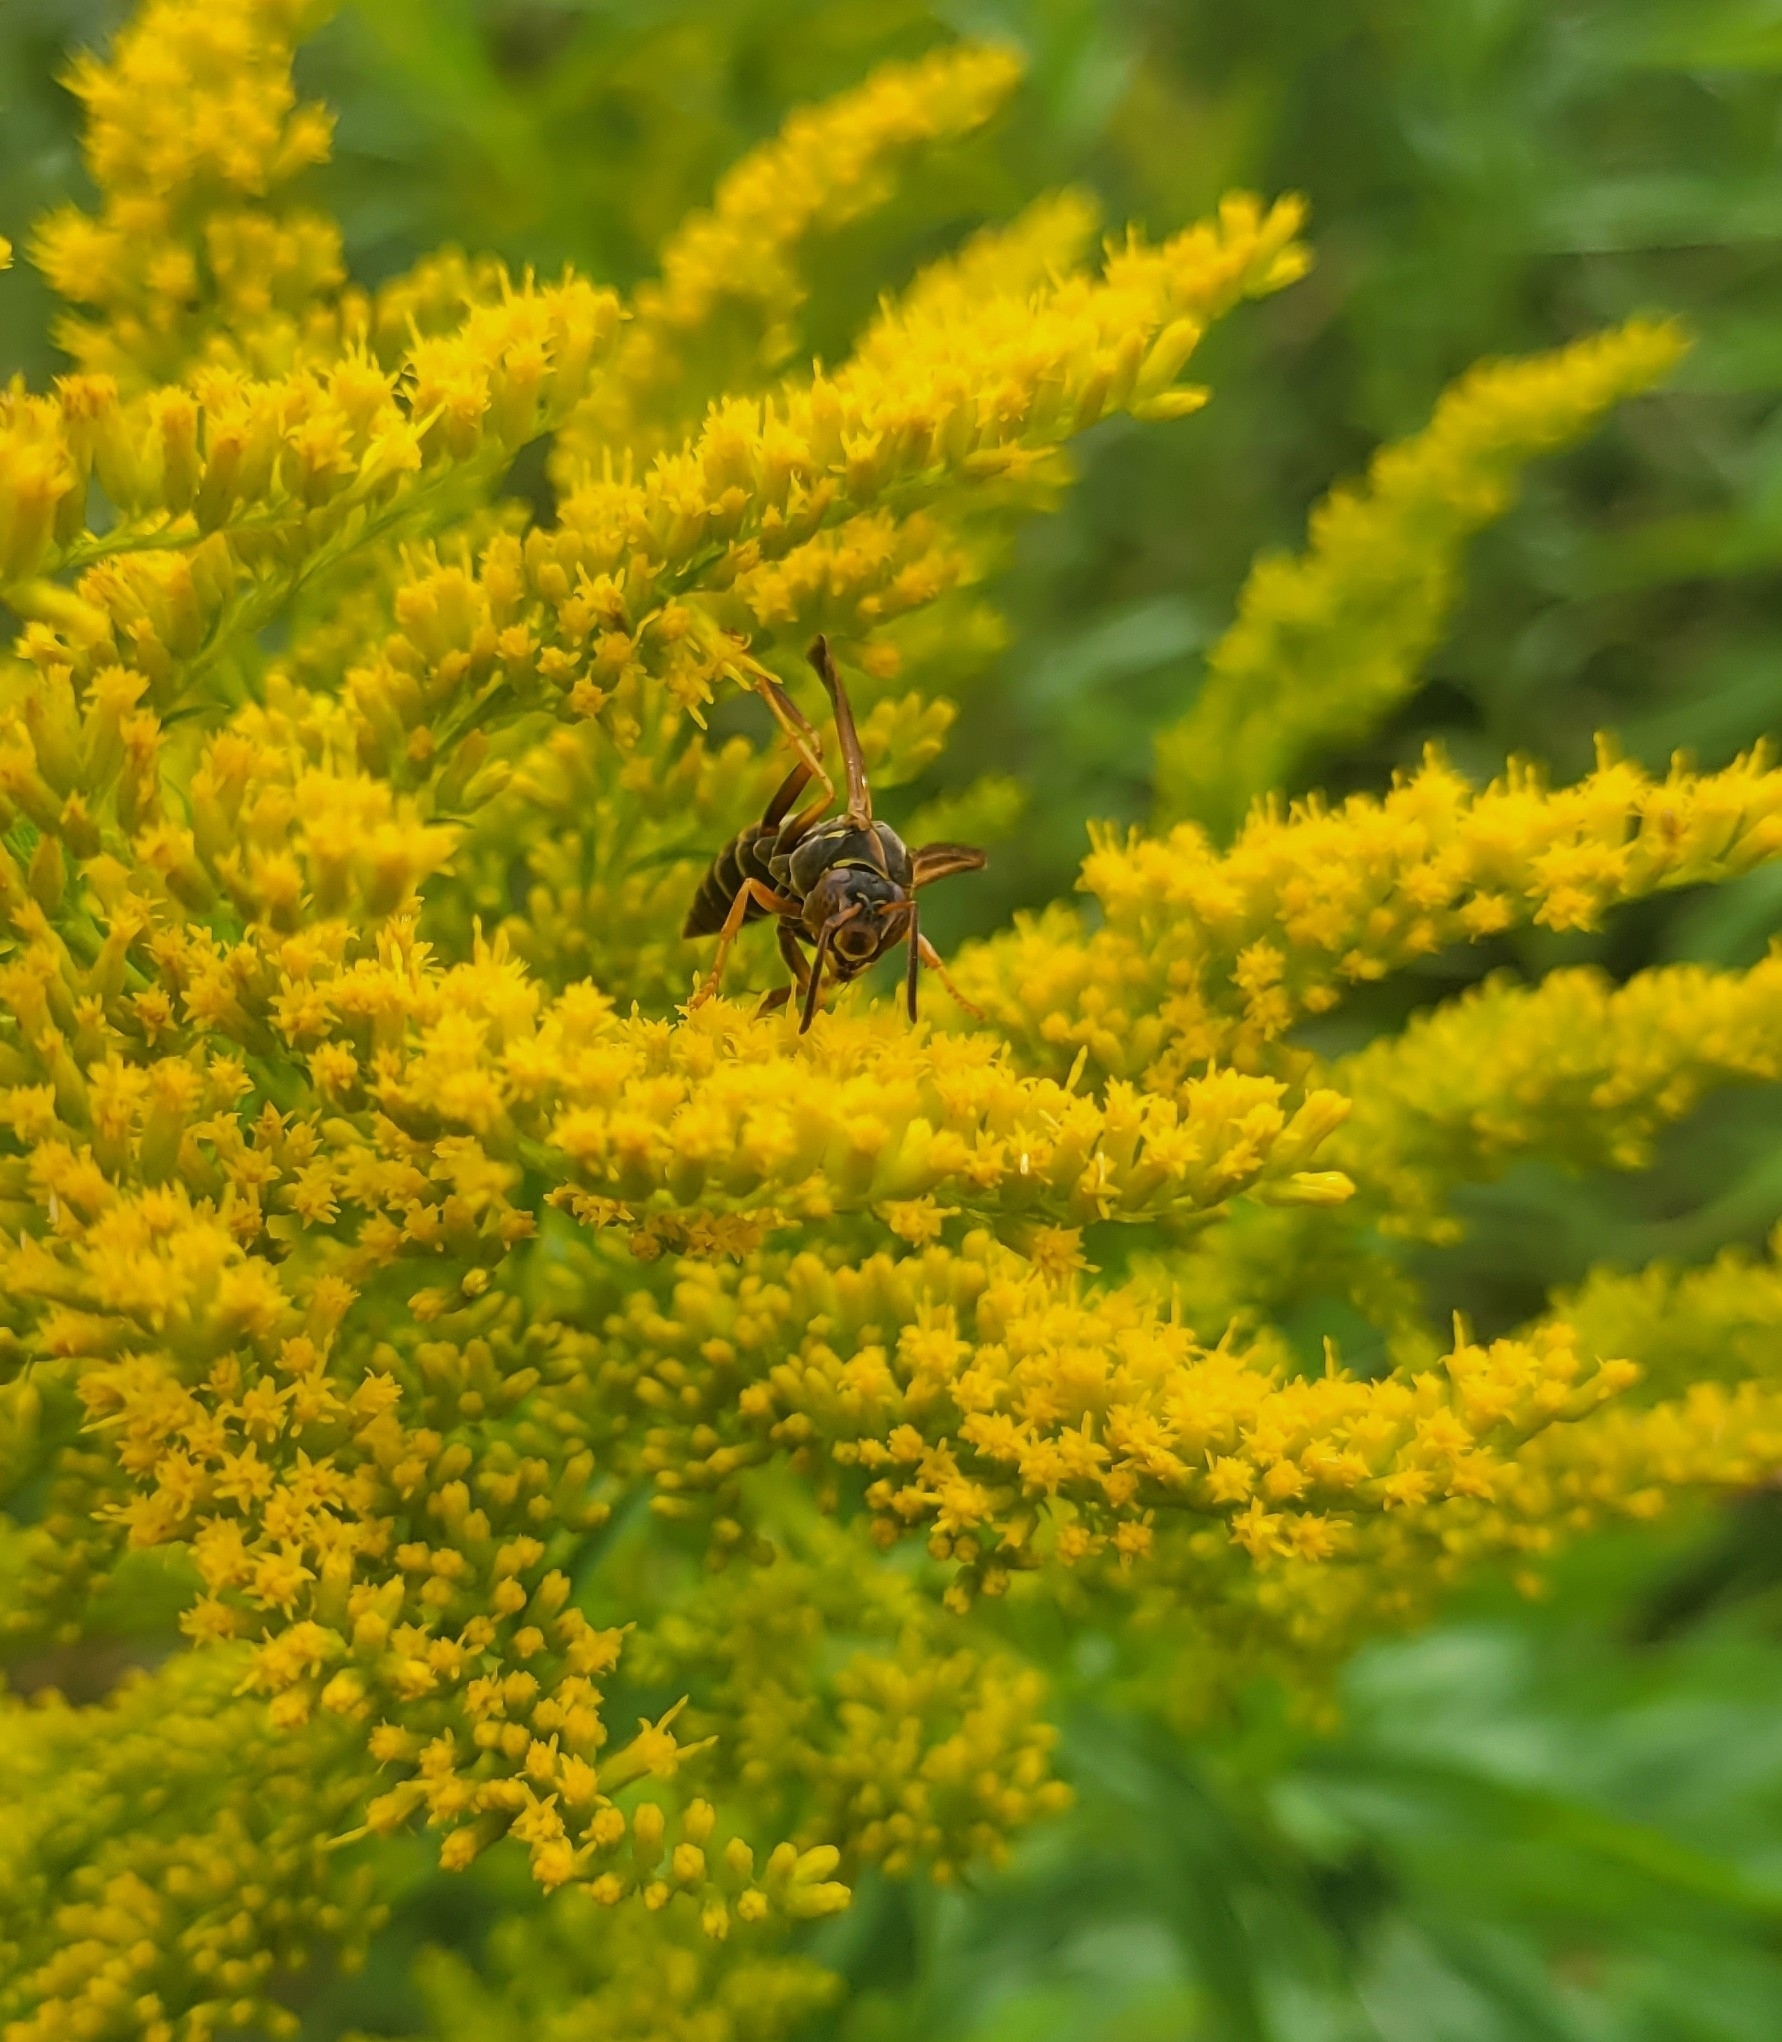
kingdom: Animalia
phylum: Arthropoda
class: Insecta
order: Hymenoptera
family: Eumenidae
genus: Polistes
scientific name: Polistes fuscatus
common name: Dark paper wasp
